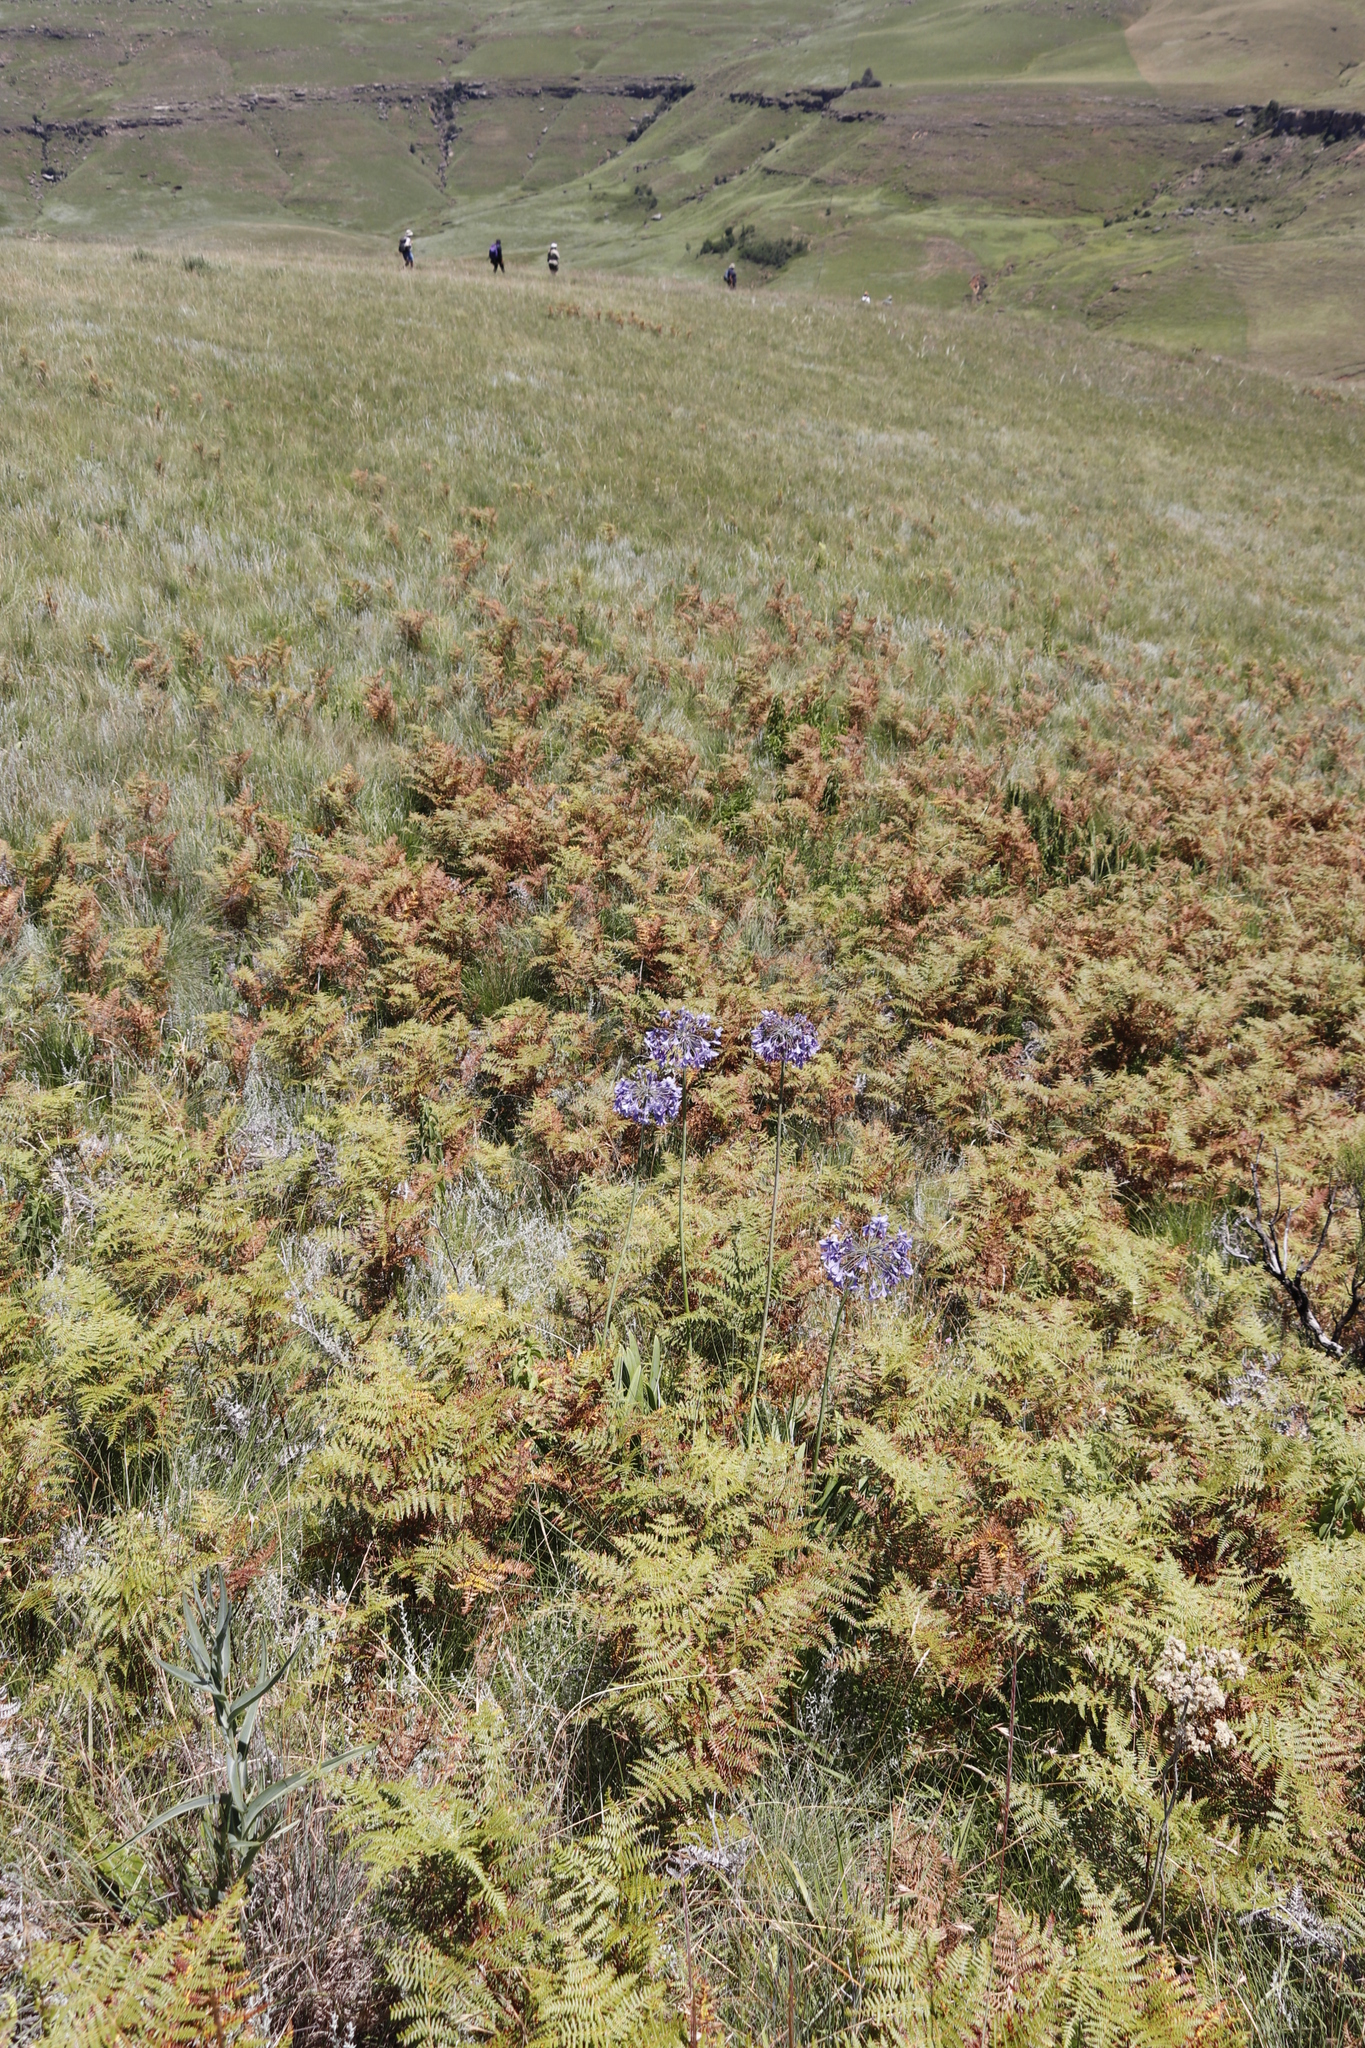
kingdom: Plantae
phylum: Tracheophyta
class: Polypodiopsida
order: Polypodiales
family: Dennstaedtiaceae
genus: Pteridium
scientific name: Pteridium aquilinum
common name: Bracken
